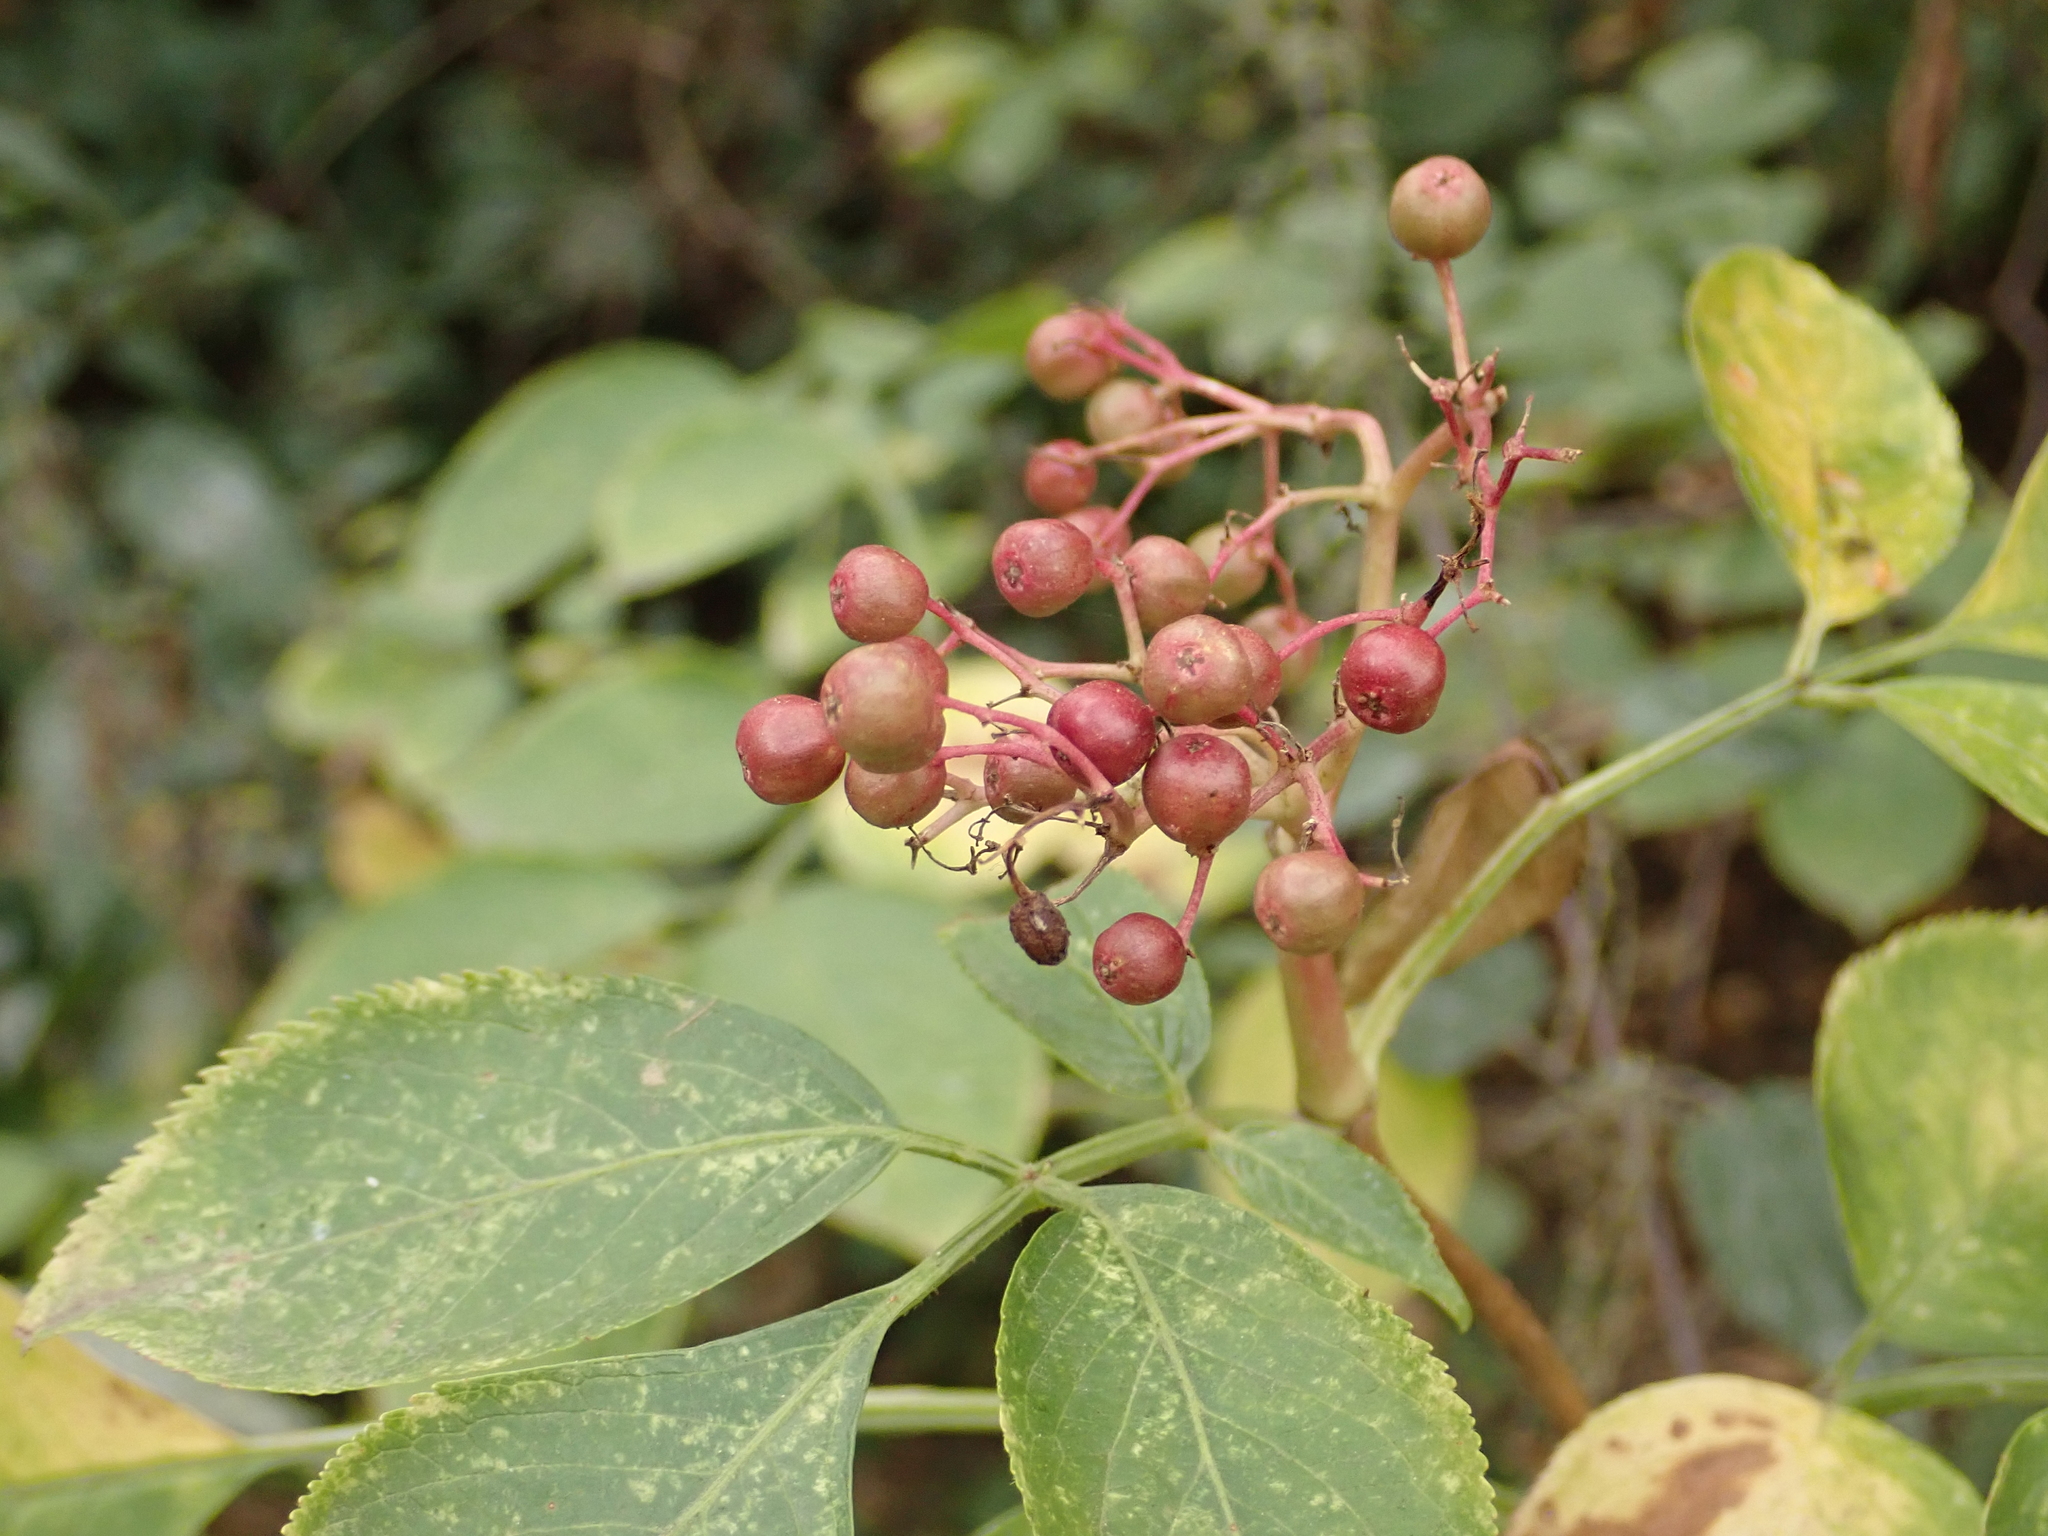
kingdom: Plantae
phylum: Tracheophyta
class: Magnoliopsida
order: Dipsacales
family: Viburnaceae
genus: Sambucus
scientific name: Sambucus nigra
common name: Elder
